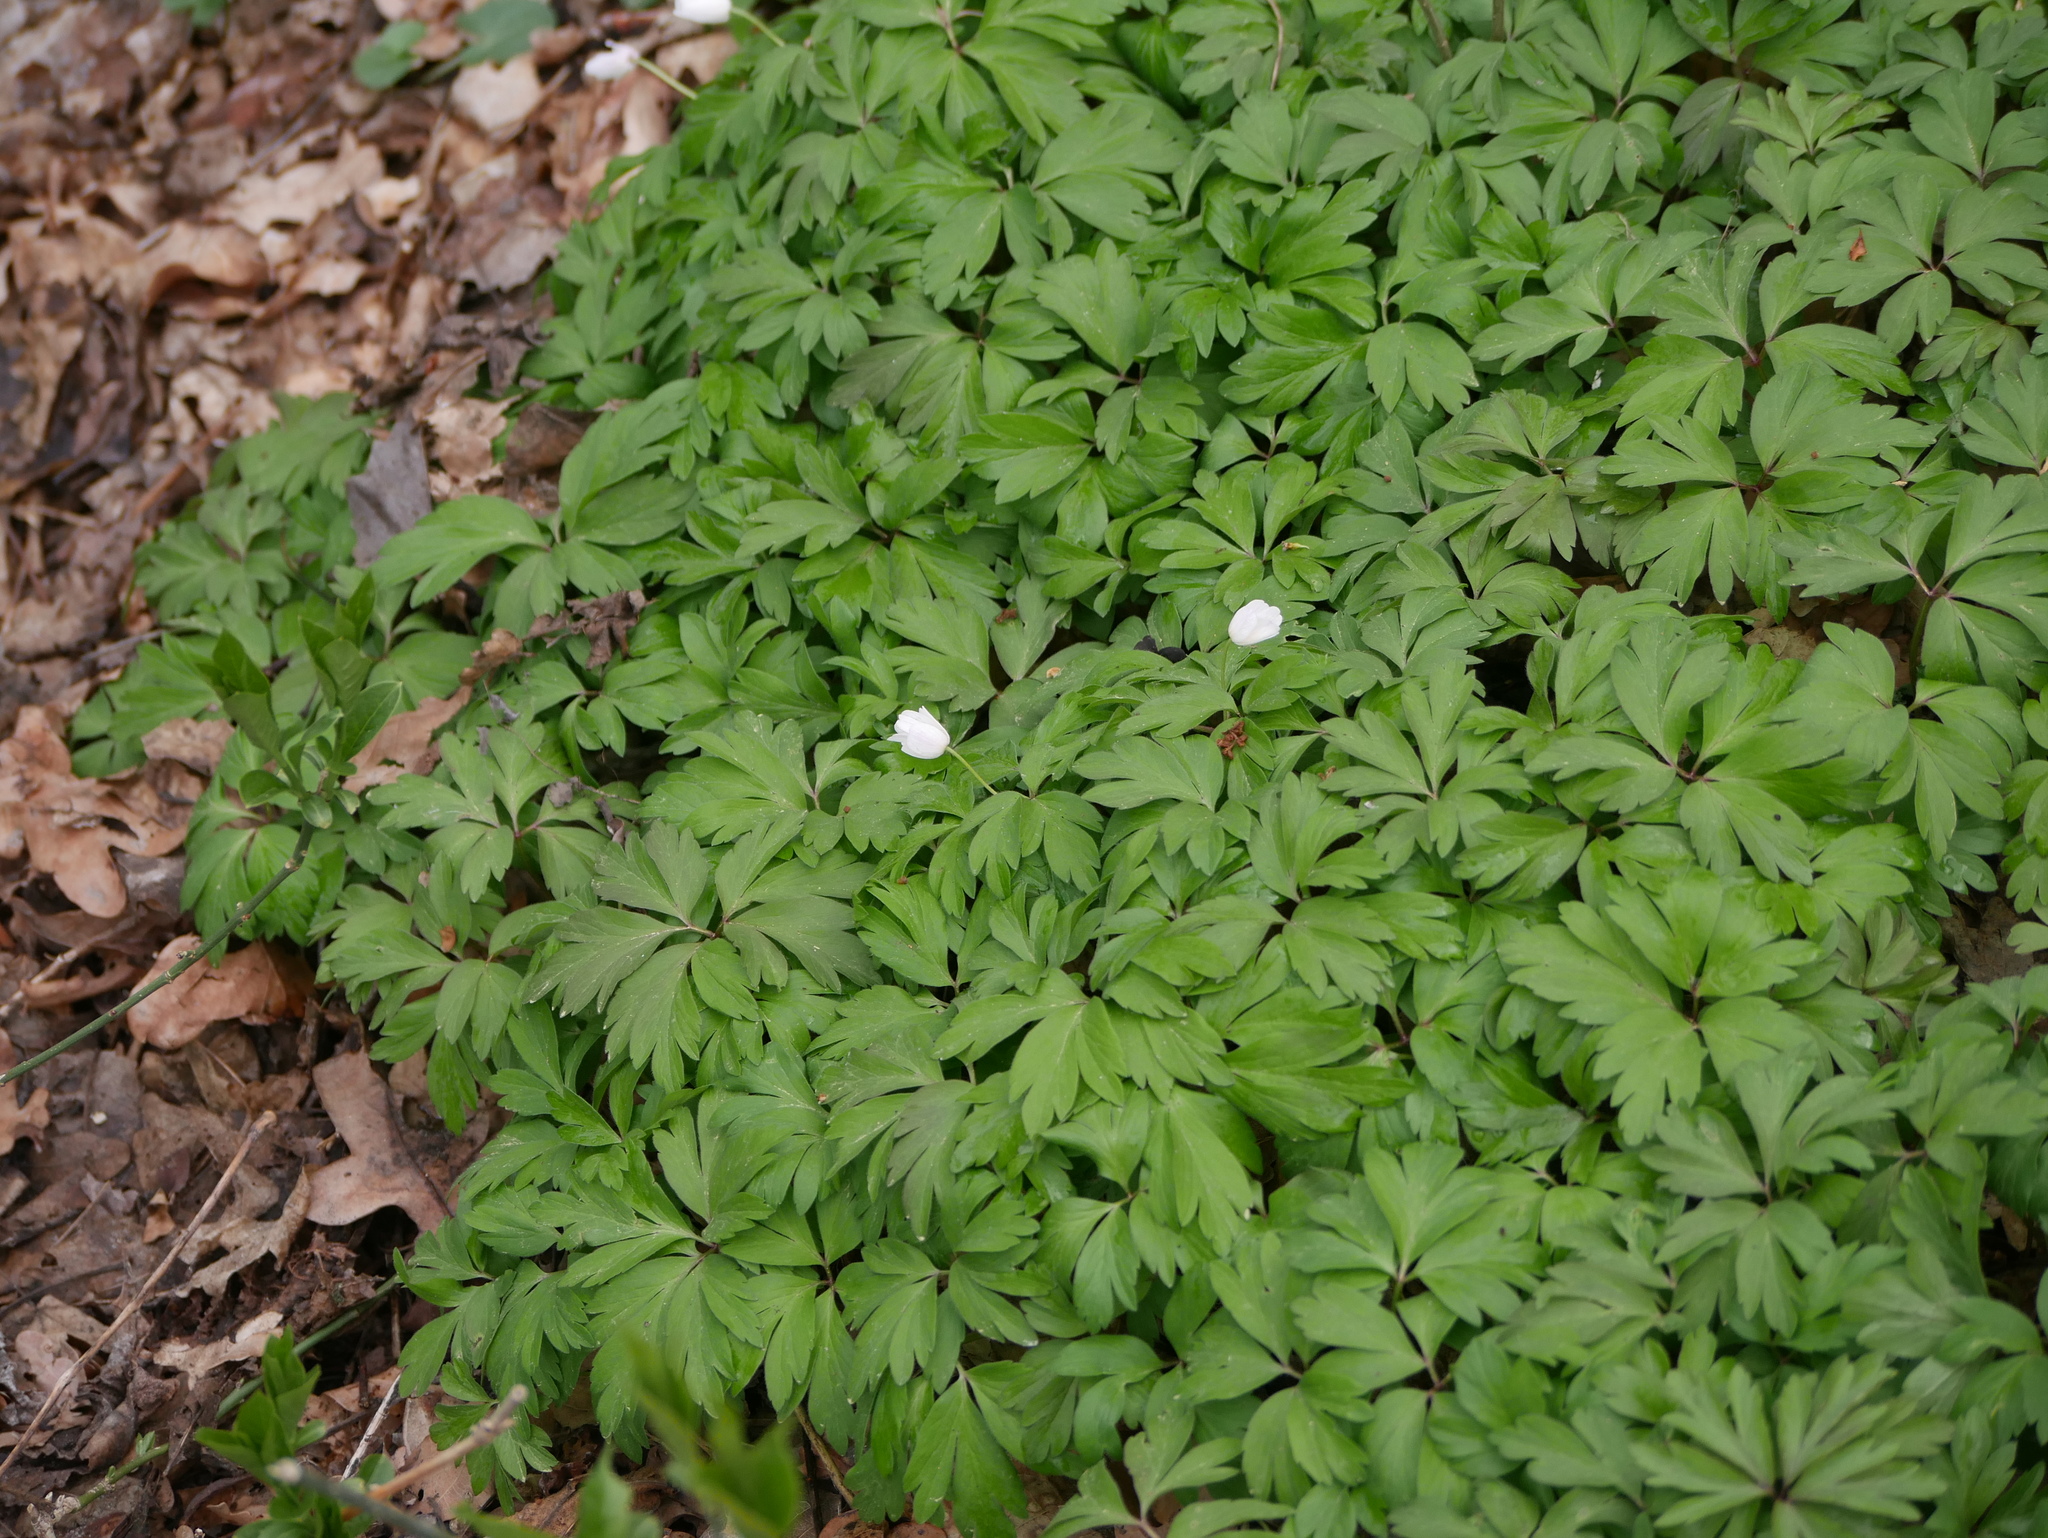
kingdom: Plantae
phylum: Tracheophyta
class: Magnoliopsida
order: Ranunculales
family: Ranunculaceae
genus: Anemone
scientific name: Anemone nemorosa
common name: Wood anemone
